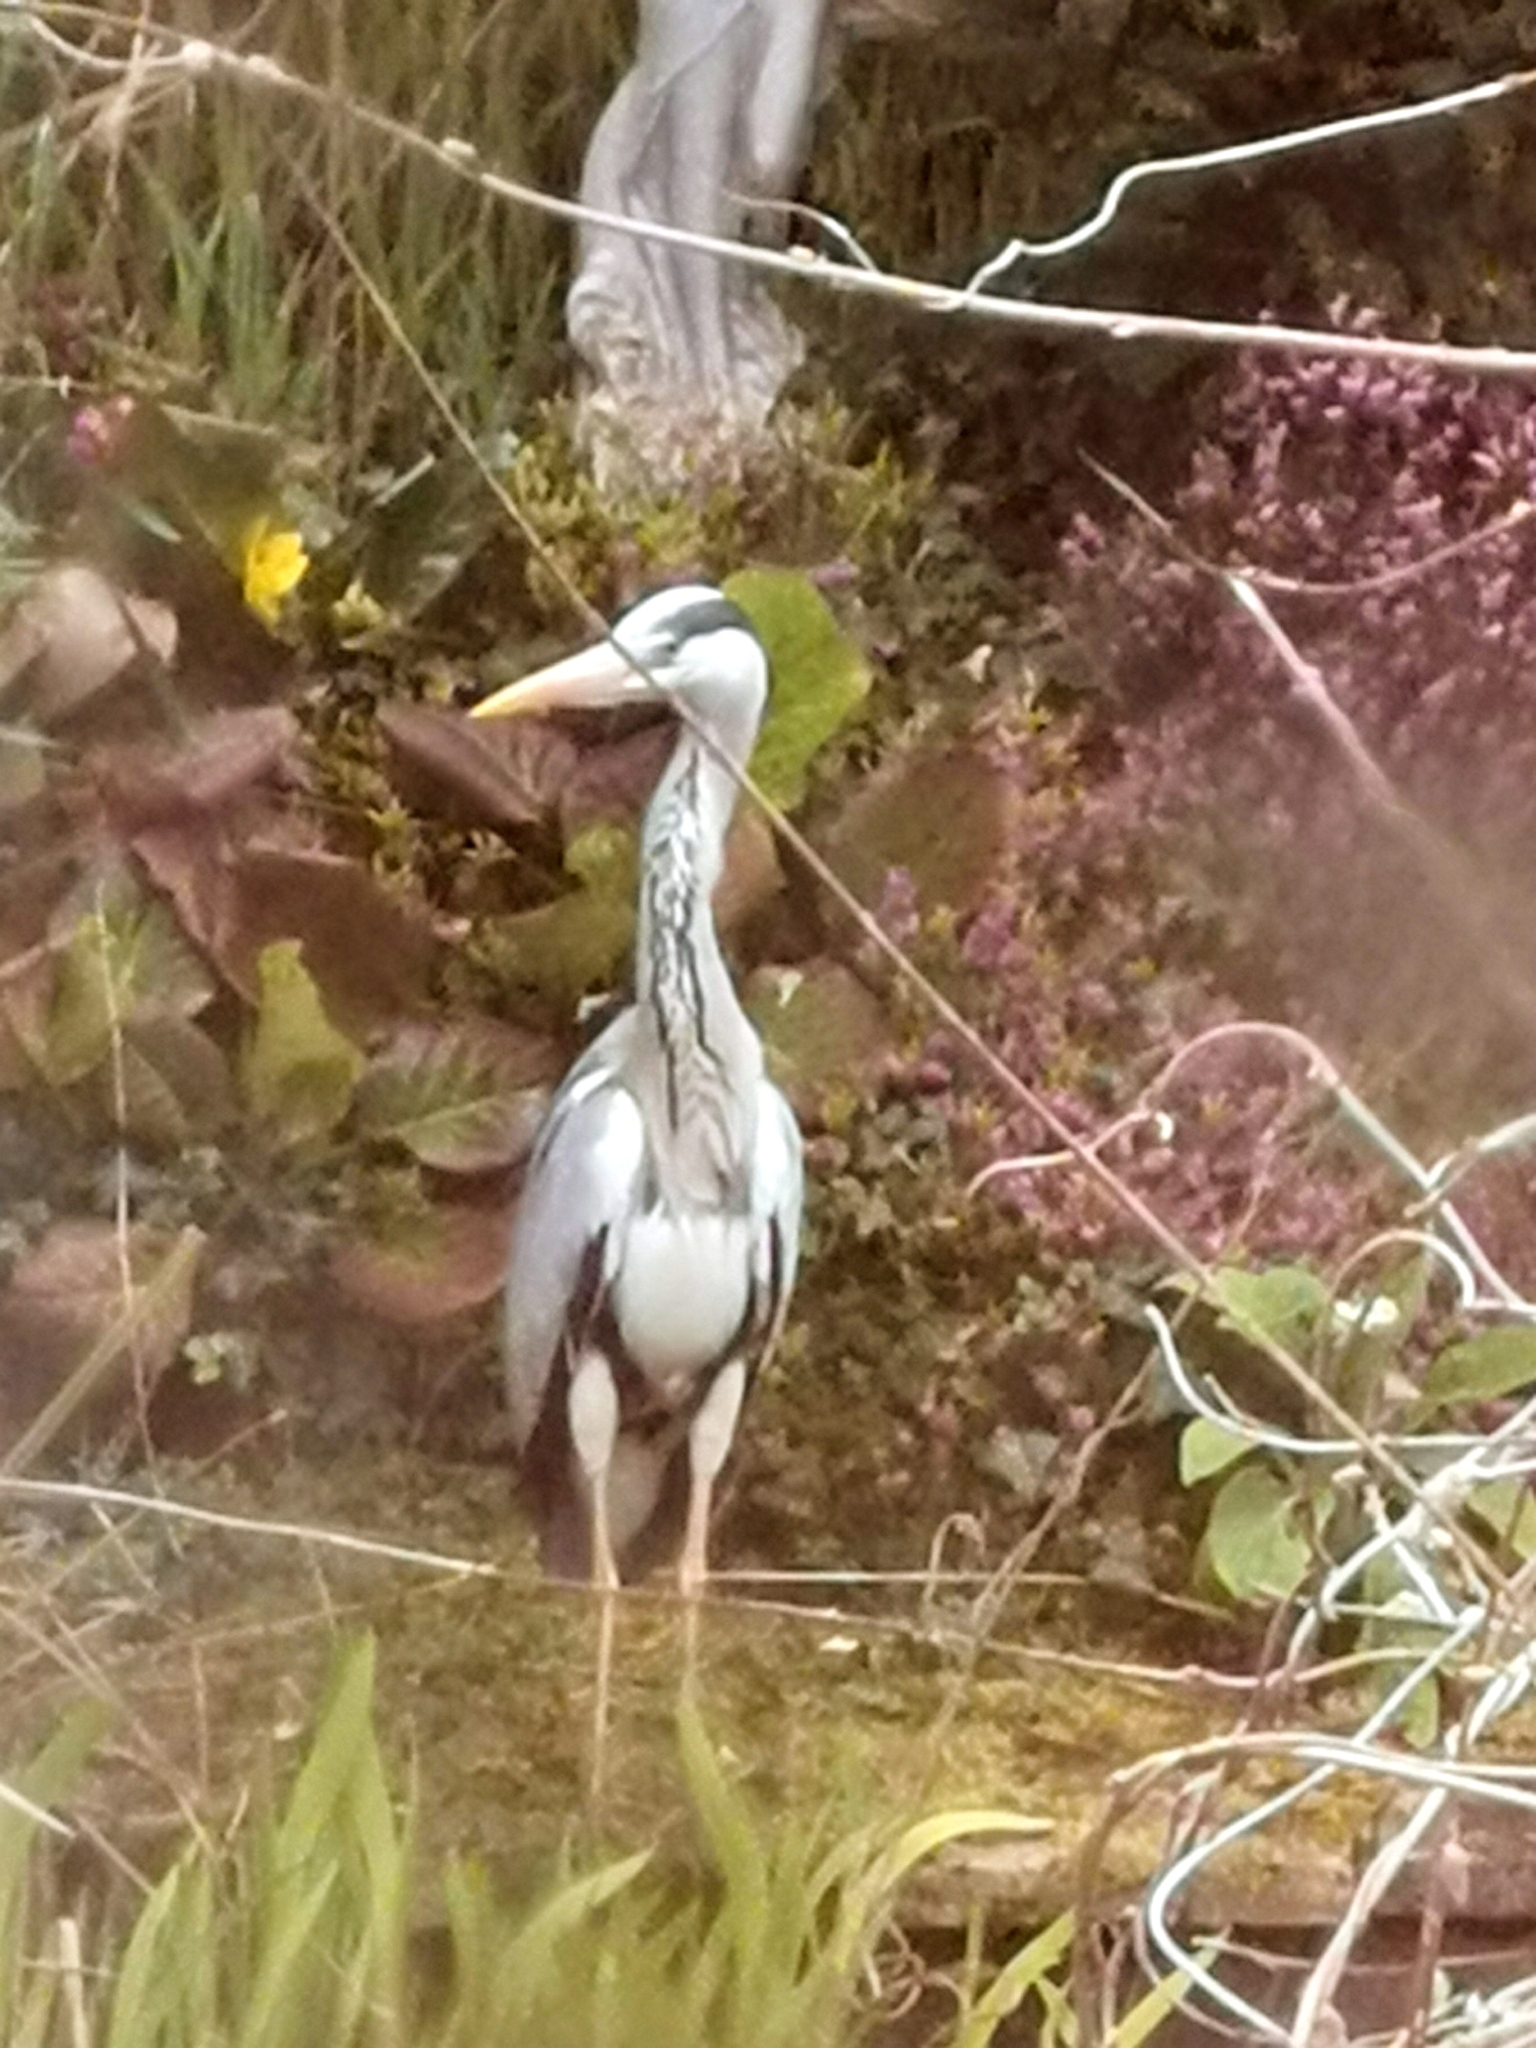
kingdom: Animalia
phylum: Chordata
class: Aves
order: Pelecaniformes
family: Ardeidae
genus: Ardea
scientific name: Ardea cinerea
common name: Grey heron
